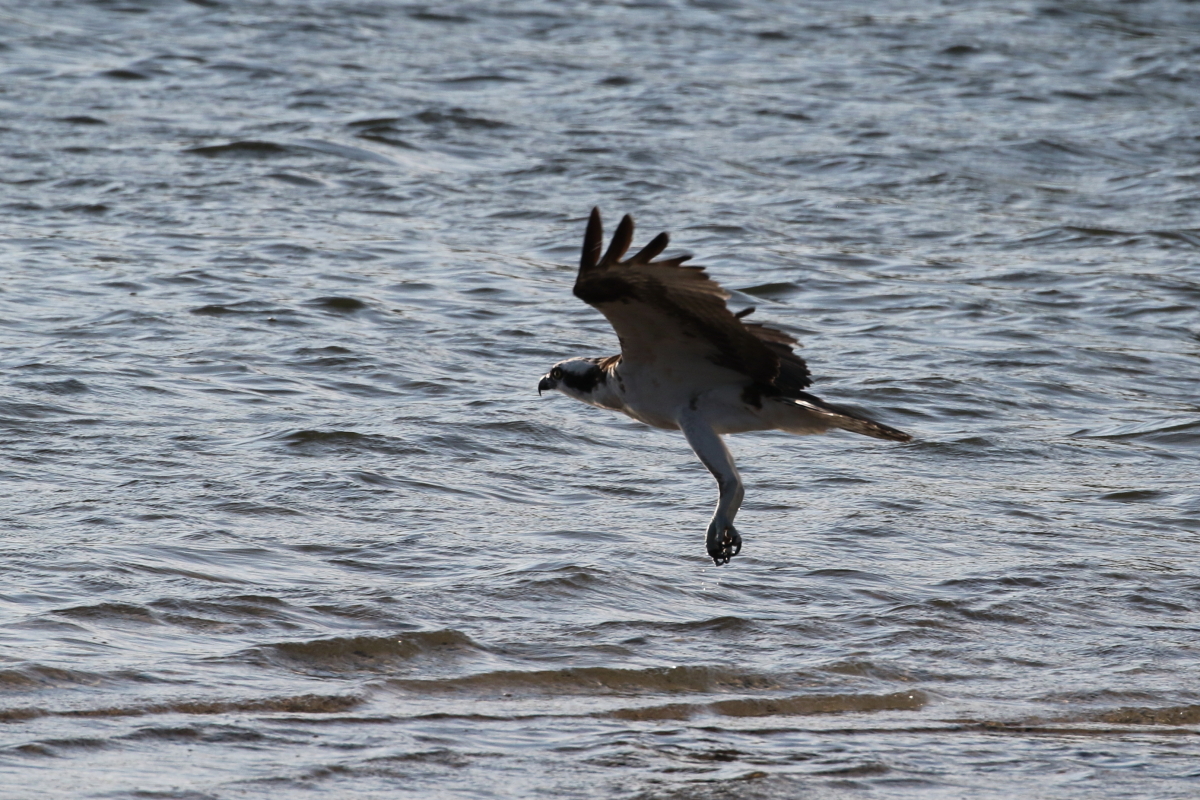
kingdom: Animalia
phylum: Chordata
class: Aves
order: Accipitriformes
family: Pandionidae
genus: Pandion
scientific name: Pandion haliaetus
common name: Osprey
